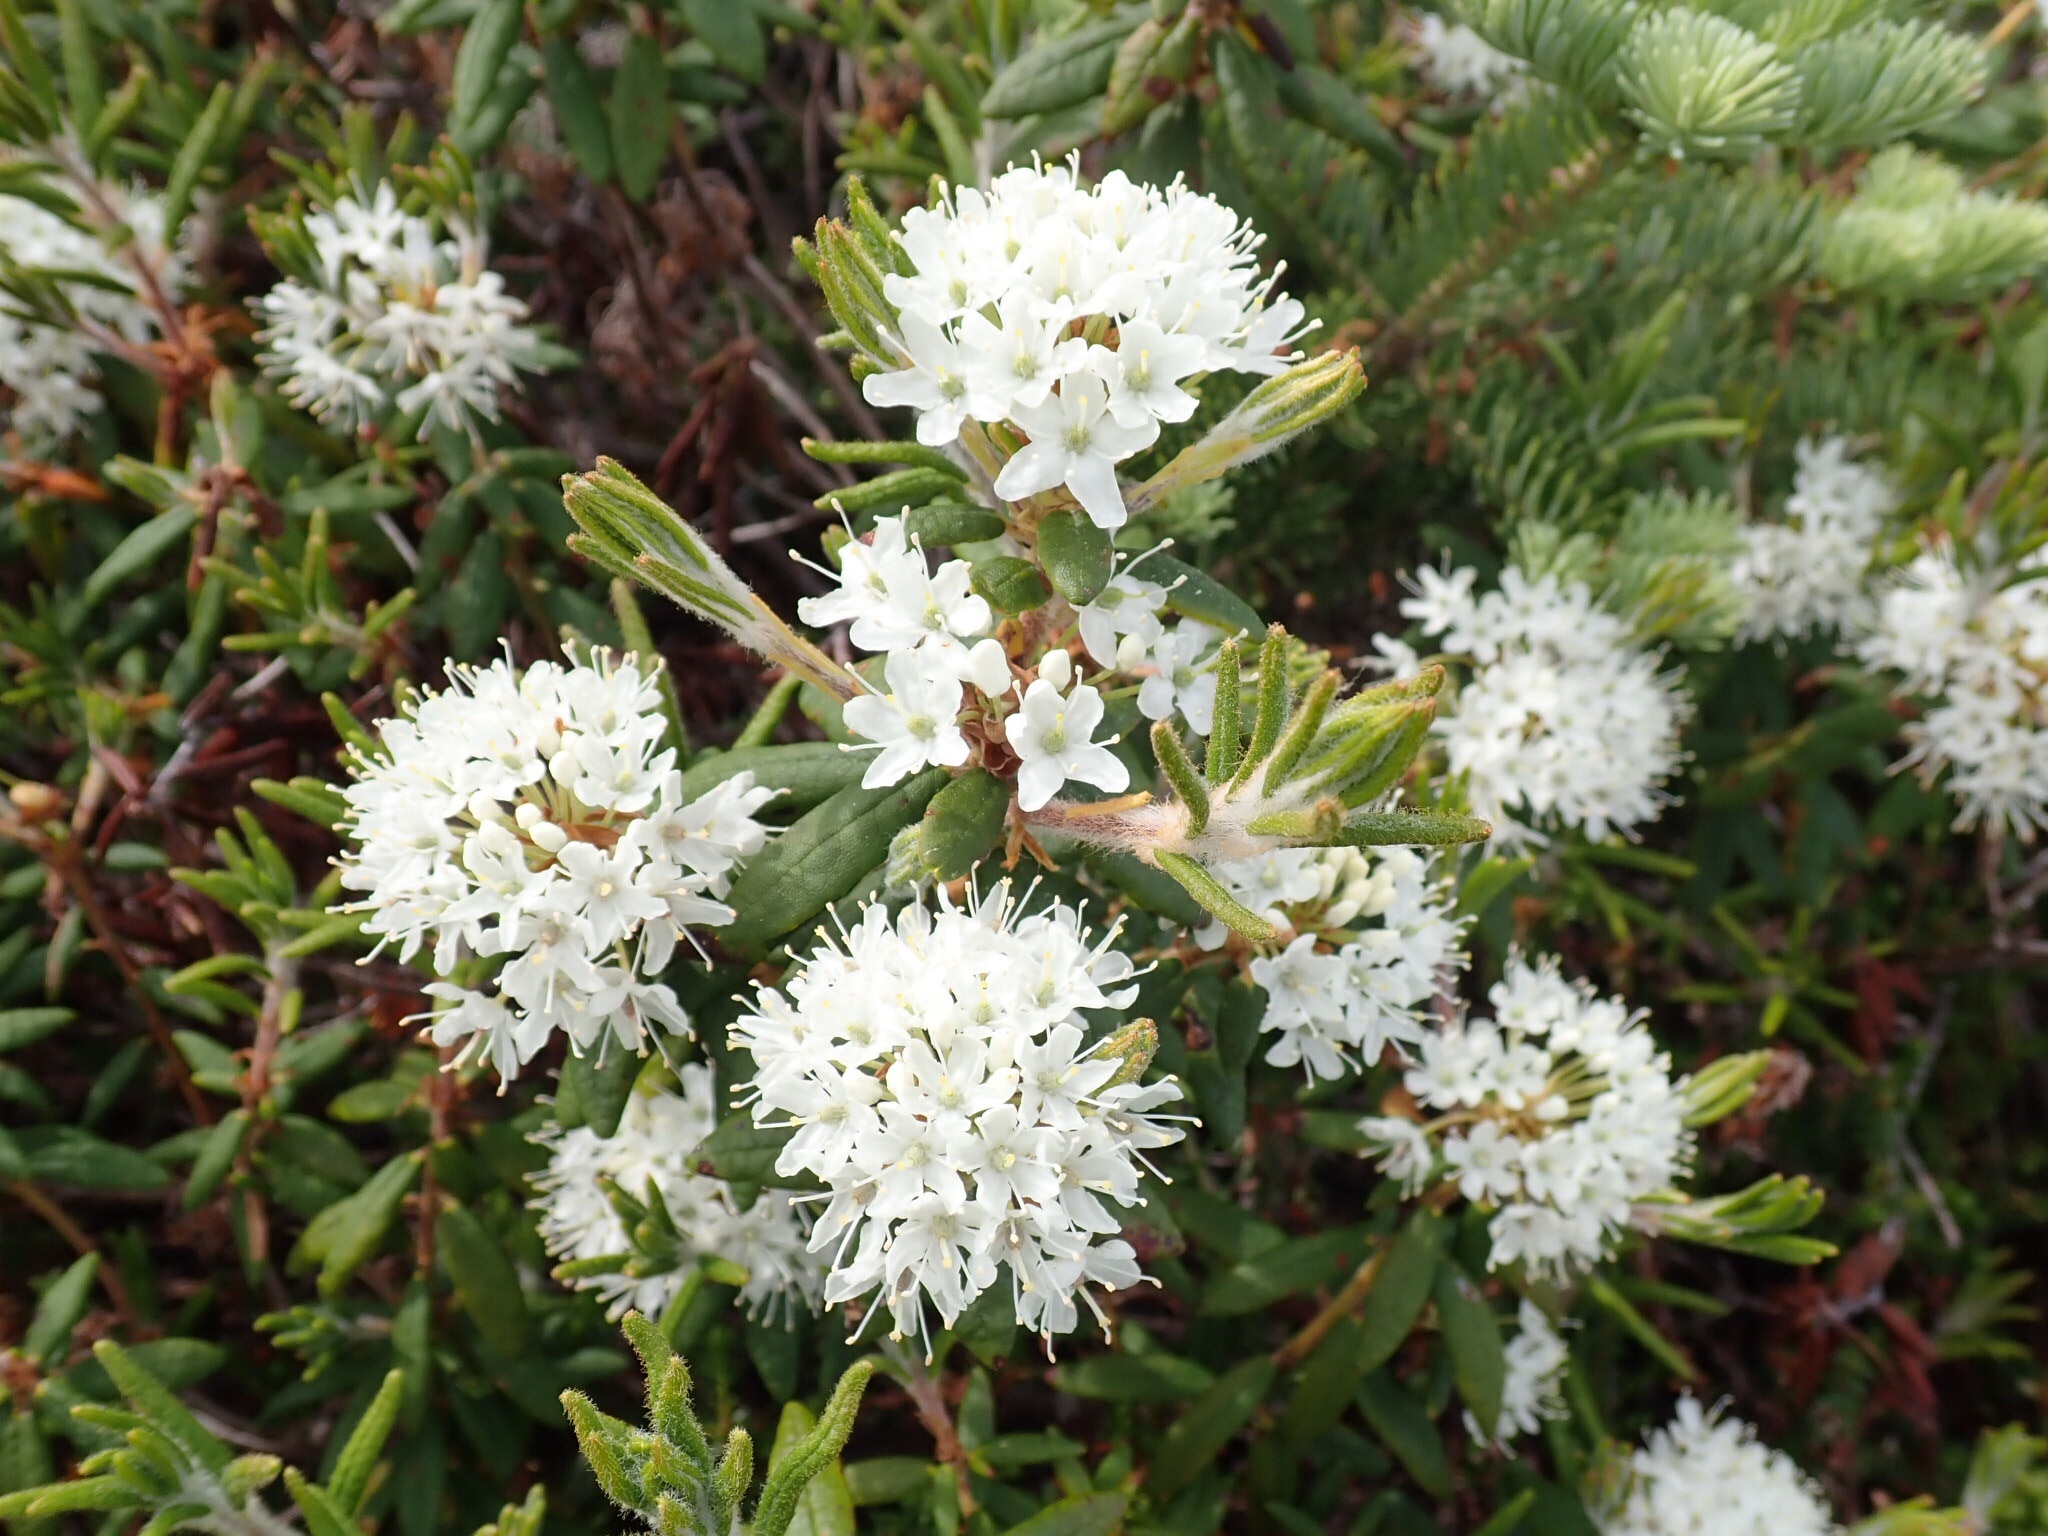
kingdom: Plantae
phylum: Tracheophyta
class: Magnoliopsida
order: Ericales
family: Ericaceae
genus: Rhododendron
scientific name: Rhododendron groenlandicum
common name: Bog labrador tea
